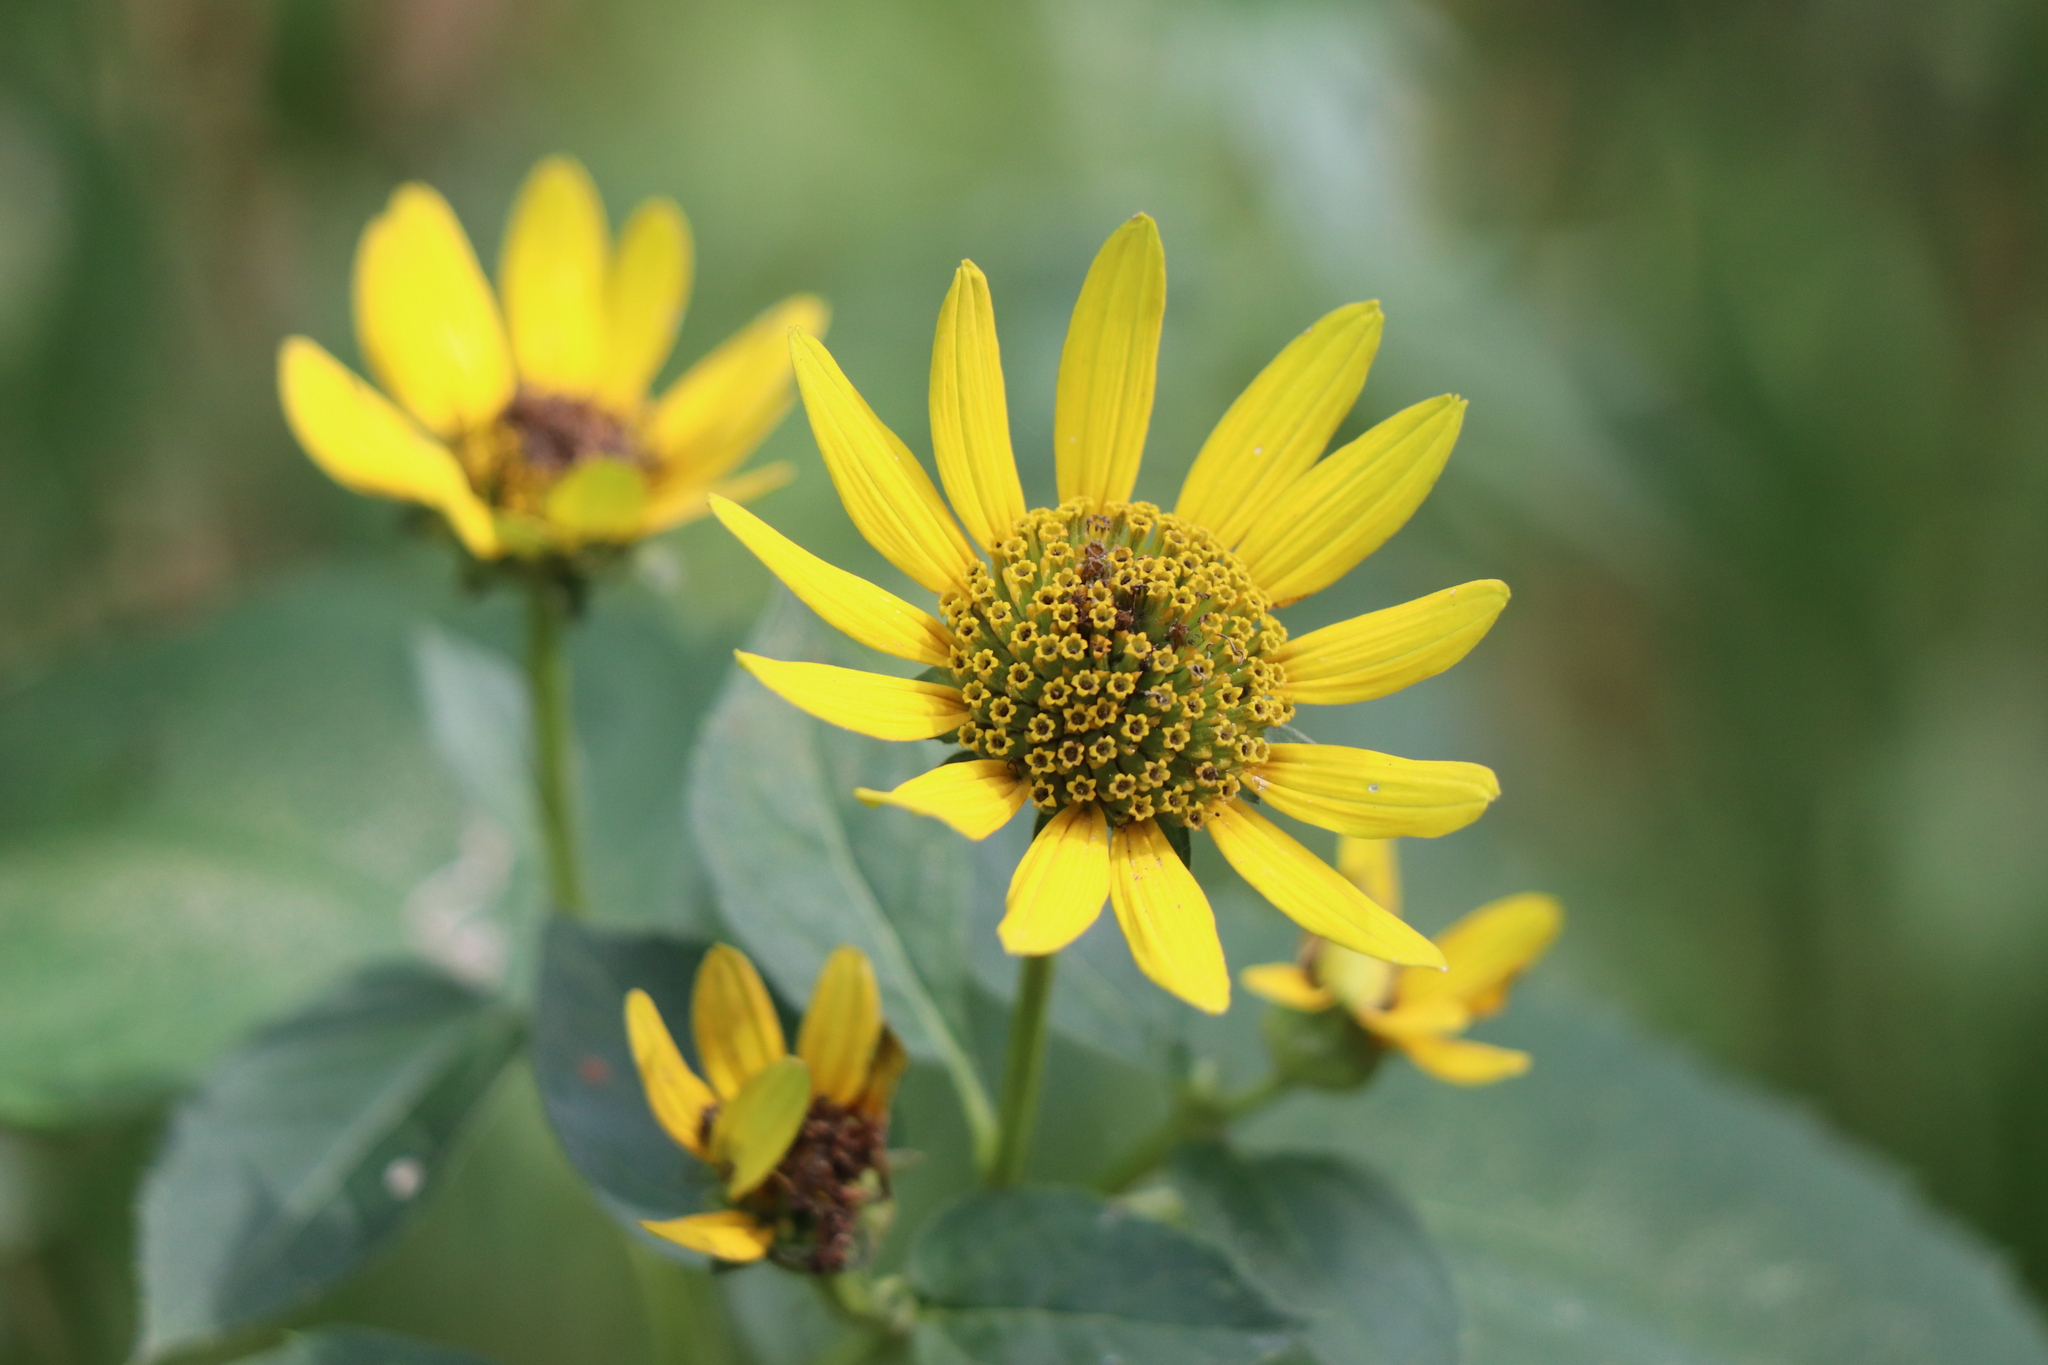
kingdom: Plantae
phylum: Tracheophyta
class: Magnoliopsida
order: Asterales
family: Asteraceae
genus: Heliopsis
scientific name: Heliopsis helianthoides
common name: False sunflower
